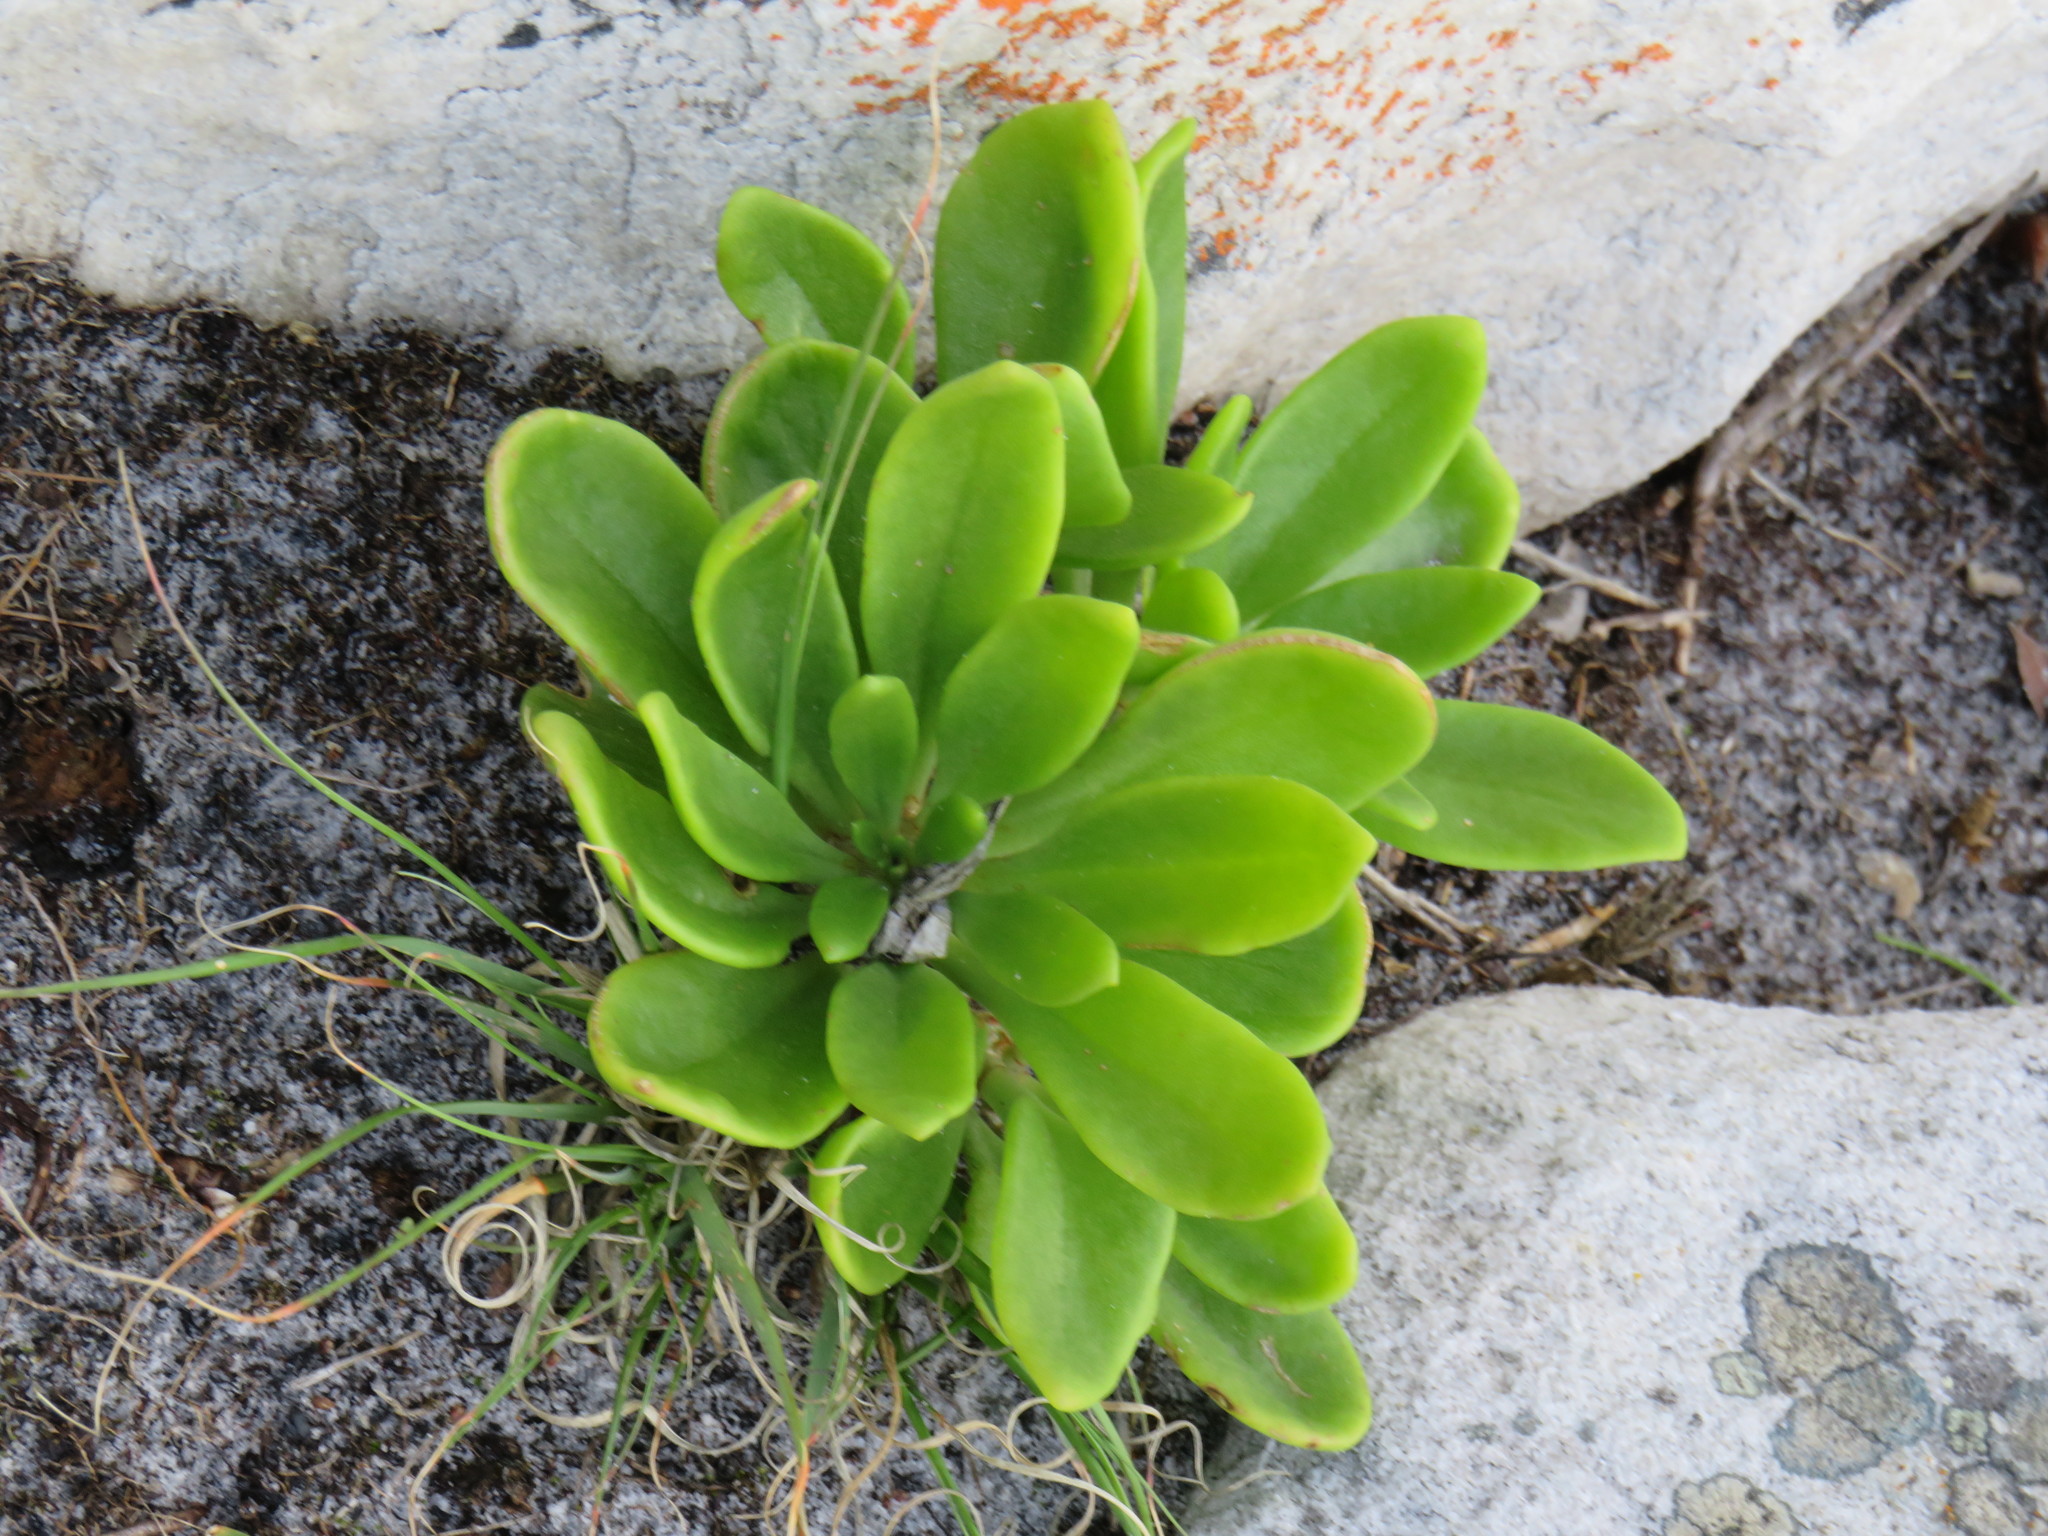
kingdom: Plantae
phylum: Tracheophyta
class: Magnoliopsida
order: Saxifragales
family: Crassulaceae
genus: Tylecodon
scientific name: Tylecodon grandiflorus
